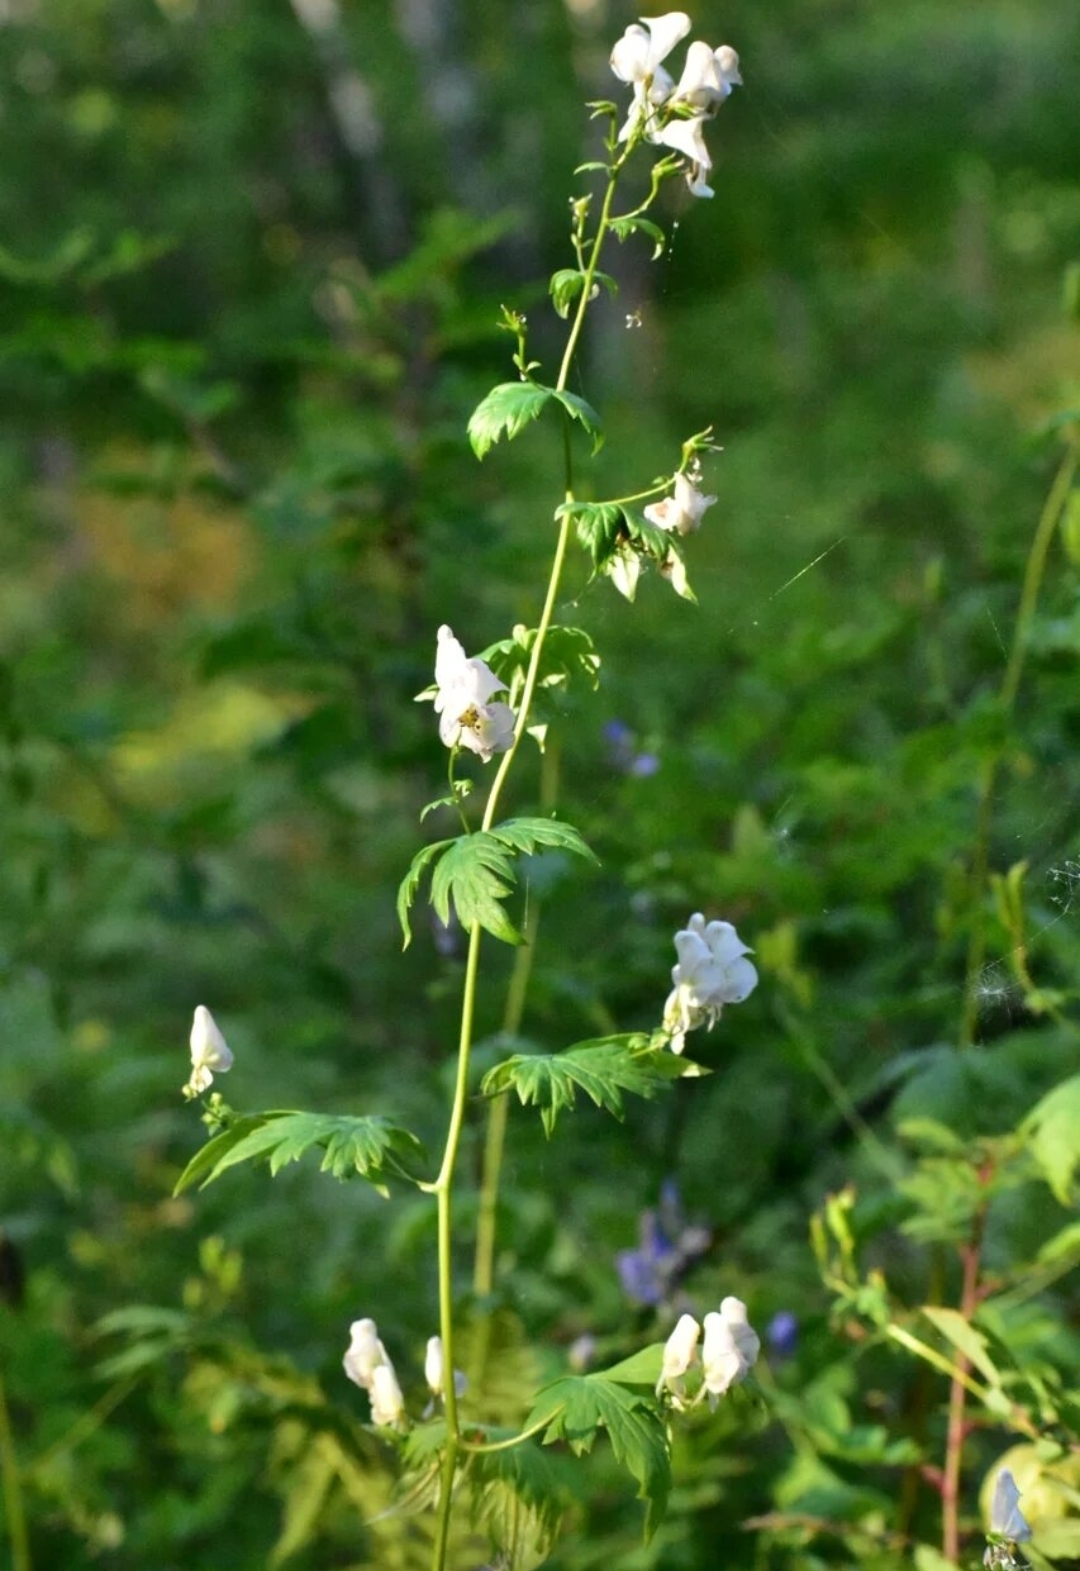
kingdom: Plantae
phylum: Tracheophyta
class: Magnoliopsida
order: Ranunculales
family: Ranunculaceae
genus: Aconitum
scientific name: Aconitum fischeri
